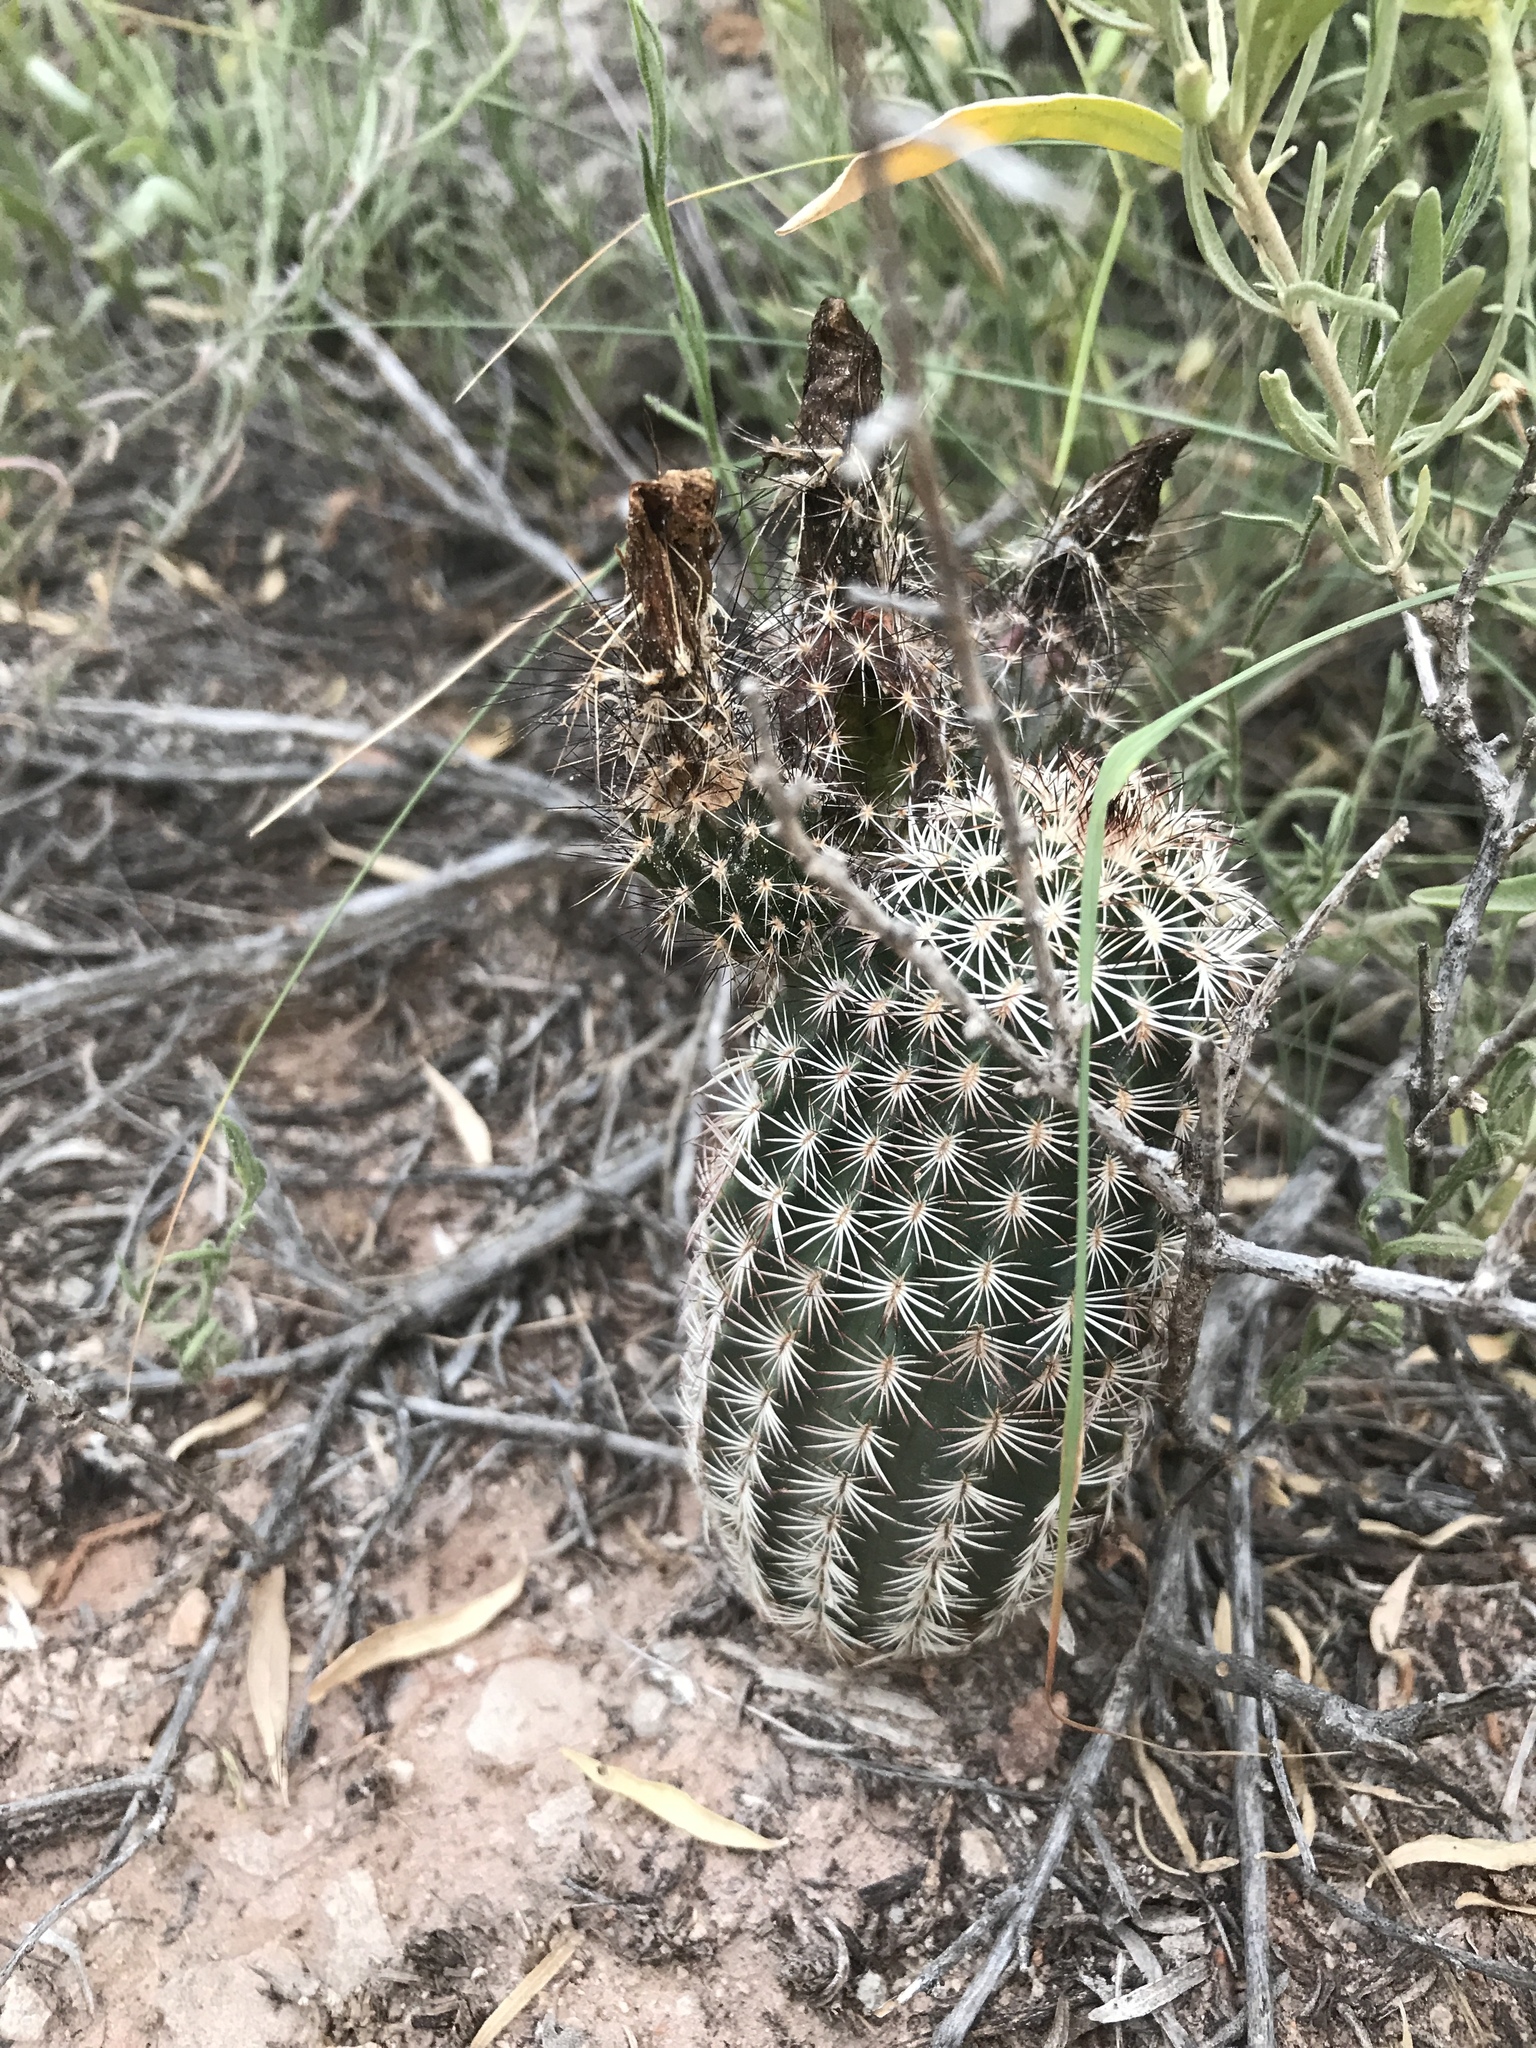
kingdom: Plantae
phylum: Tracheophyta
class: Magnoliopsida
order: Caryophyllales
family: Cactaceae
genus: Echinocereus
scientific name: Echinocereus reichenbachii
